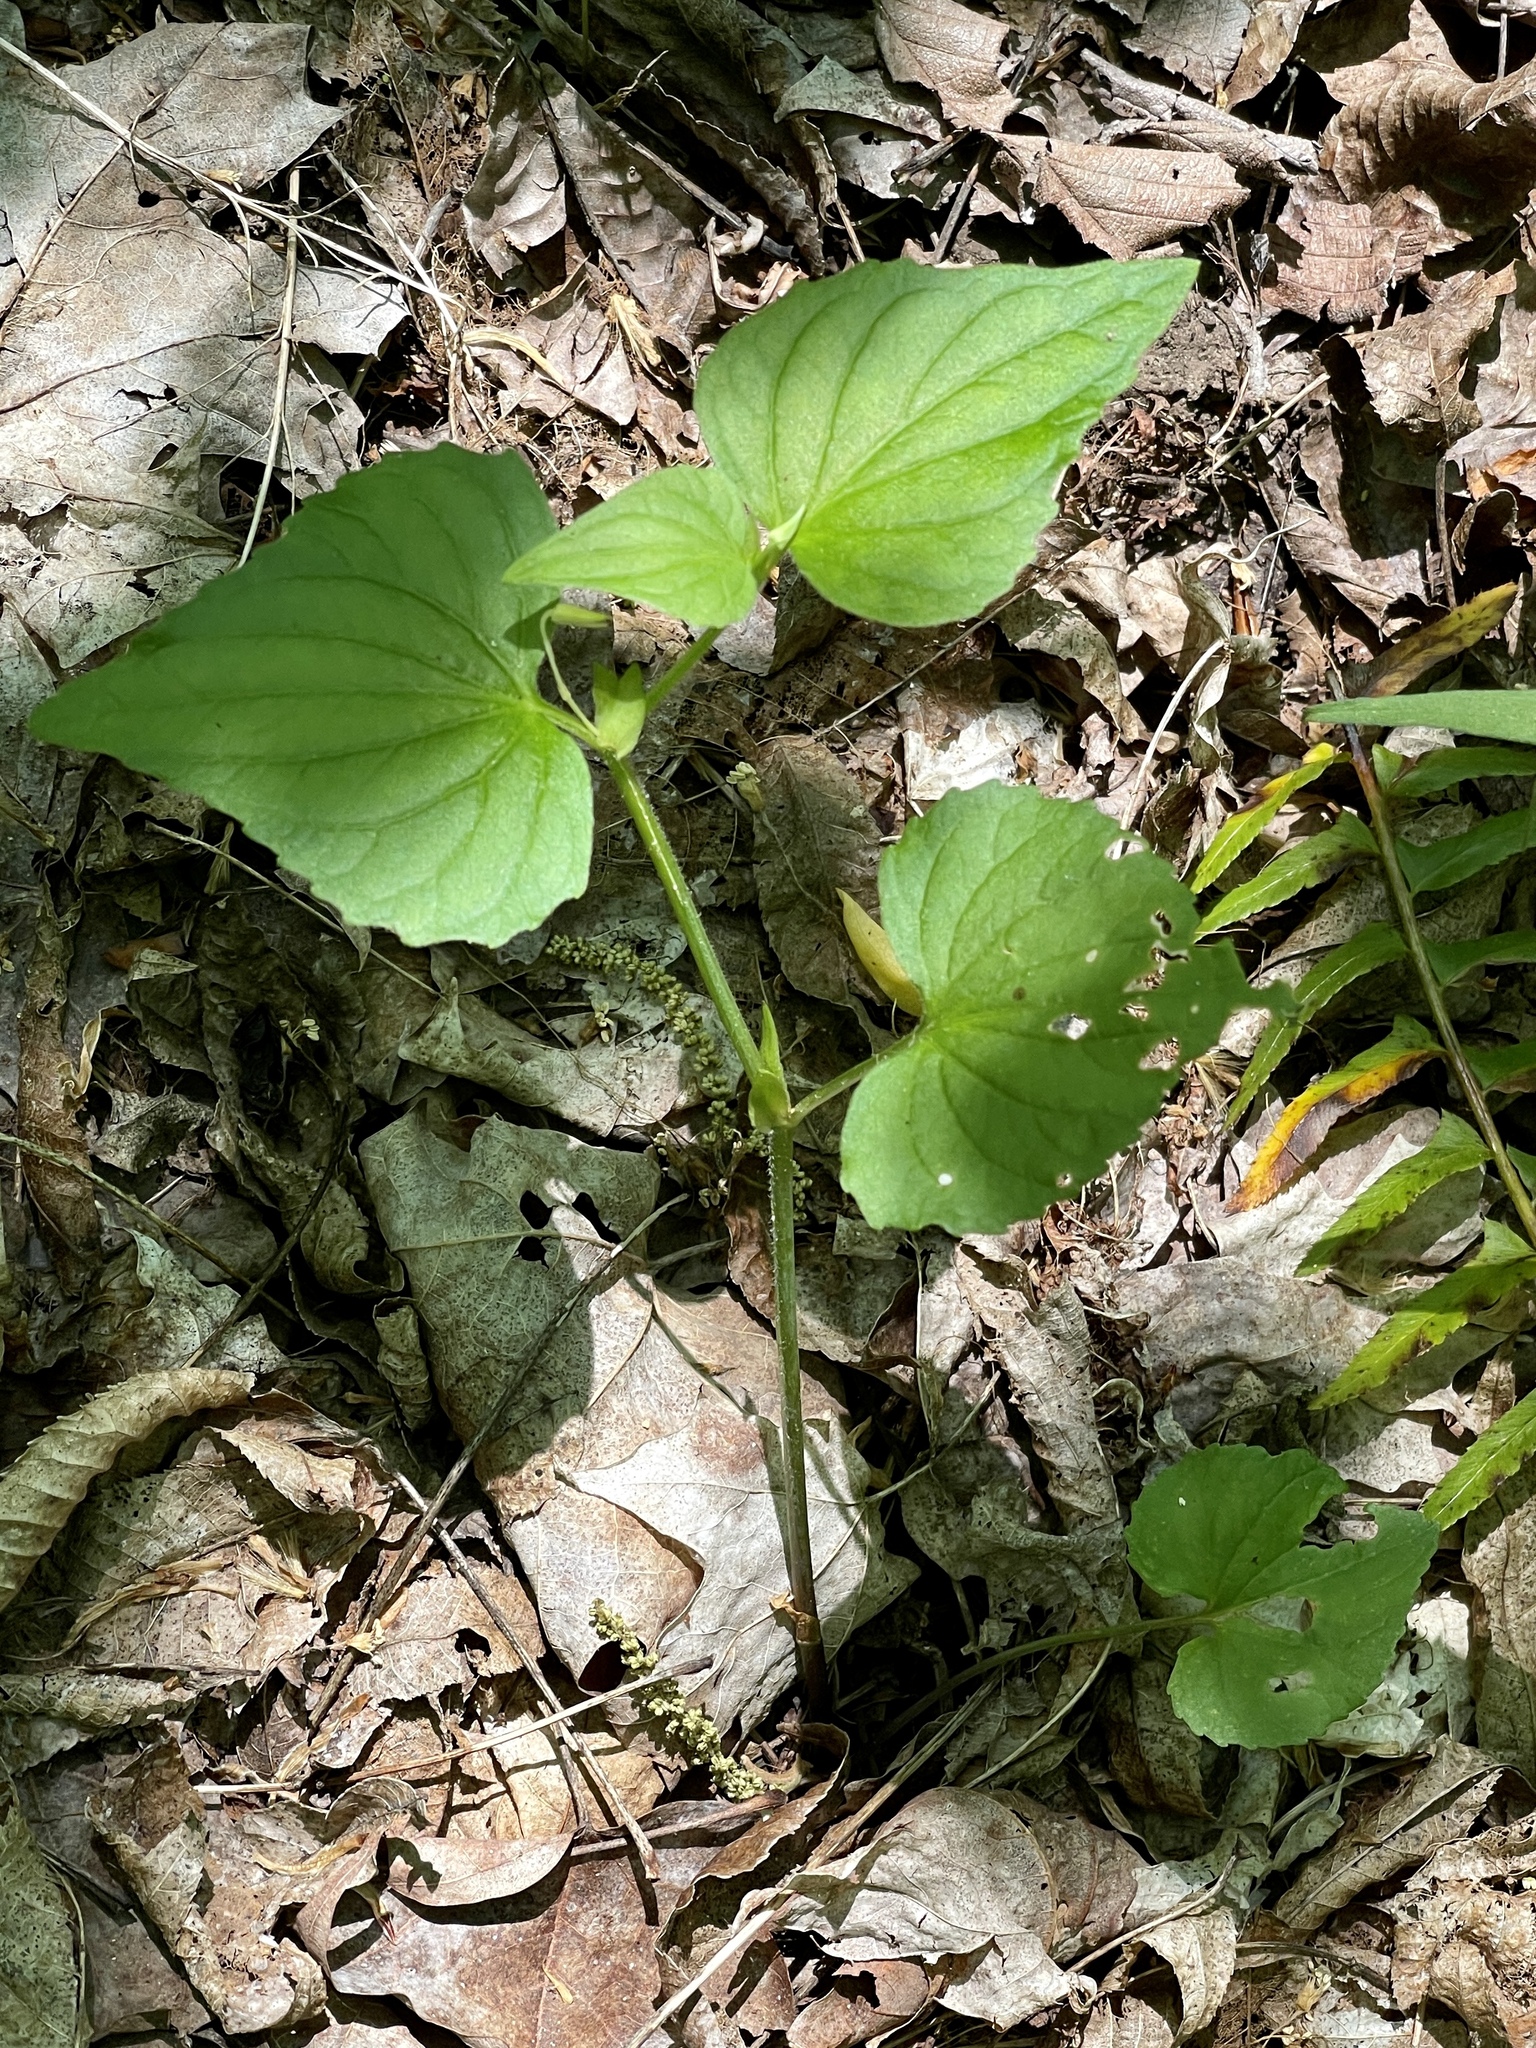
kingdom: Plantae
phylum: Tracheophyta
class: Magnoliopsida
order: Malpighiales
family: Violaceae
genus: Viola
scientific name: Viola eriocarpa
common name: Smooth yellow violet
